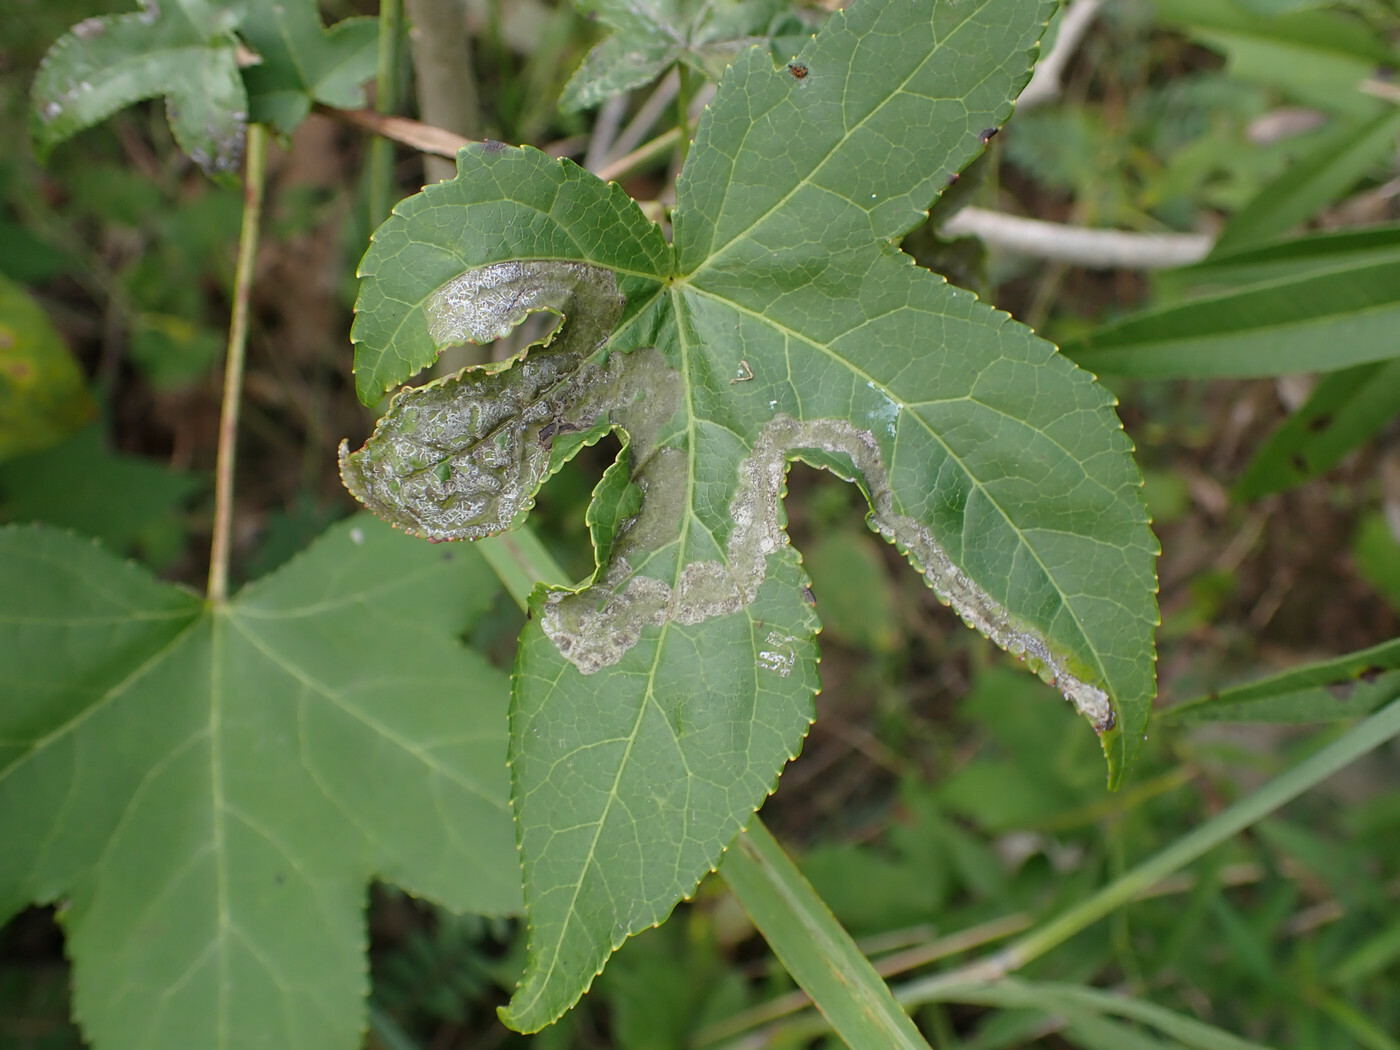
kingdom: Animalia
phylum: Arthropoda
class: Insecta
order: Lepidoptera
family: Gracillariidae
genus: Phyllocnistis
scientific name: Phyllocnistis liquidambarisella
